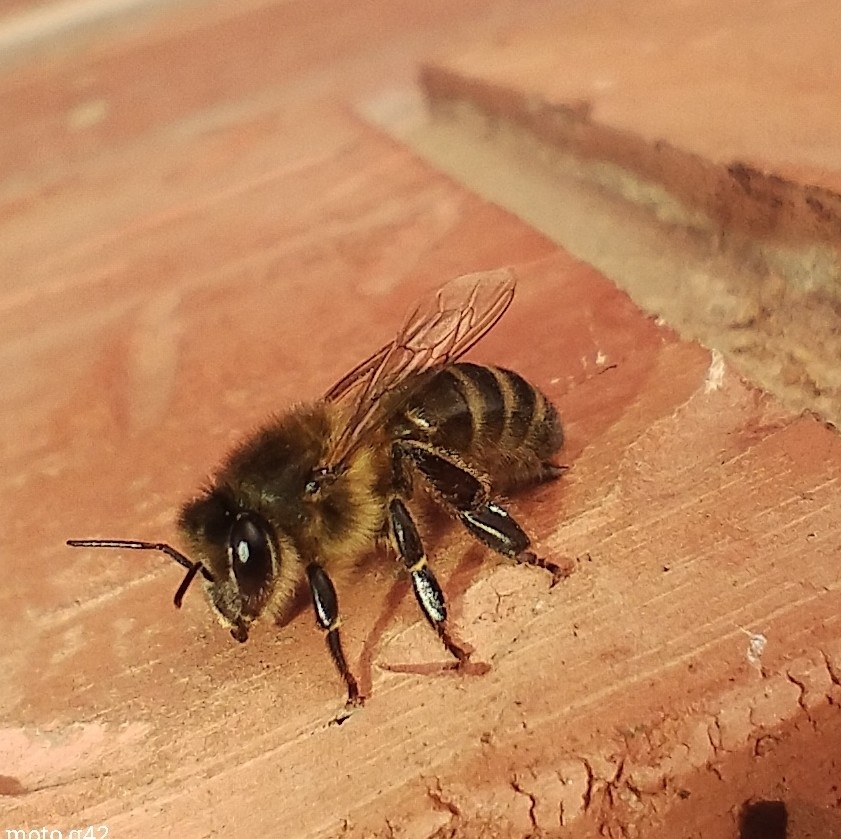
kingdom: Animalia
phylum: Arthropoda
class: Insecta
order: Hymenoptera
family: Apidae
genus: Apis
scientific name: Apis mellifera
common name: Honey bee
